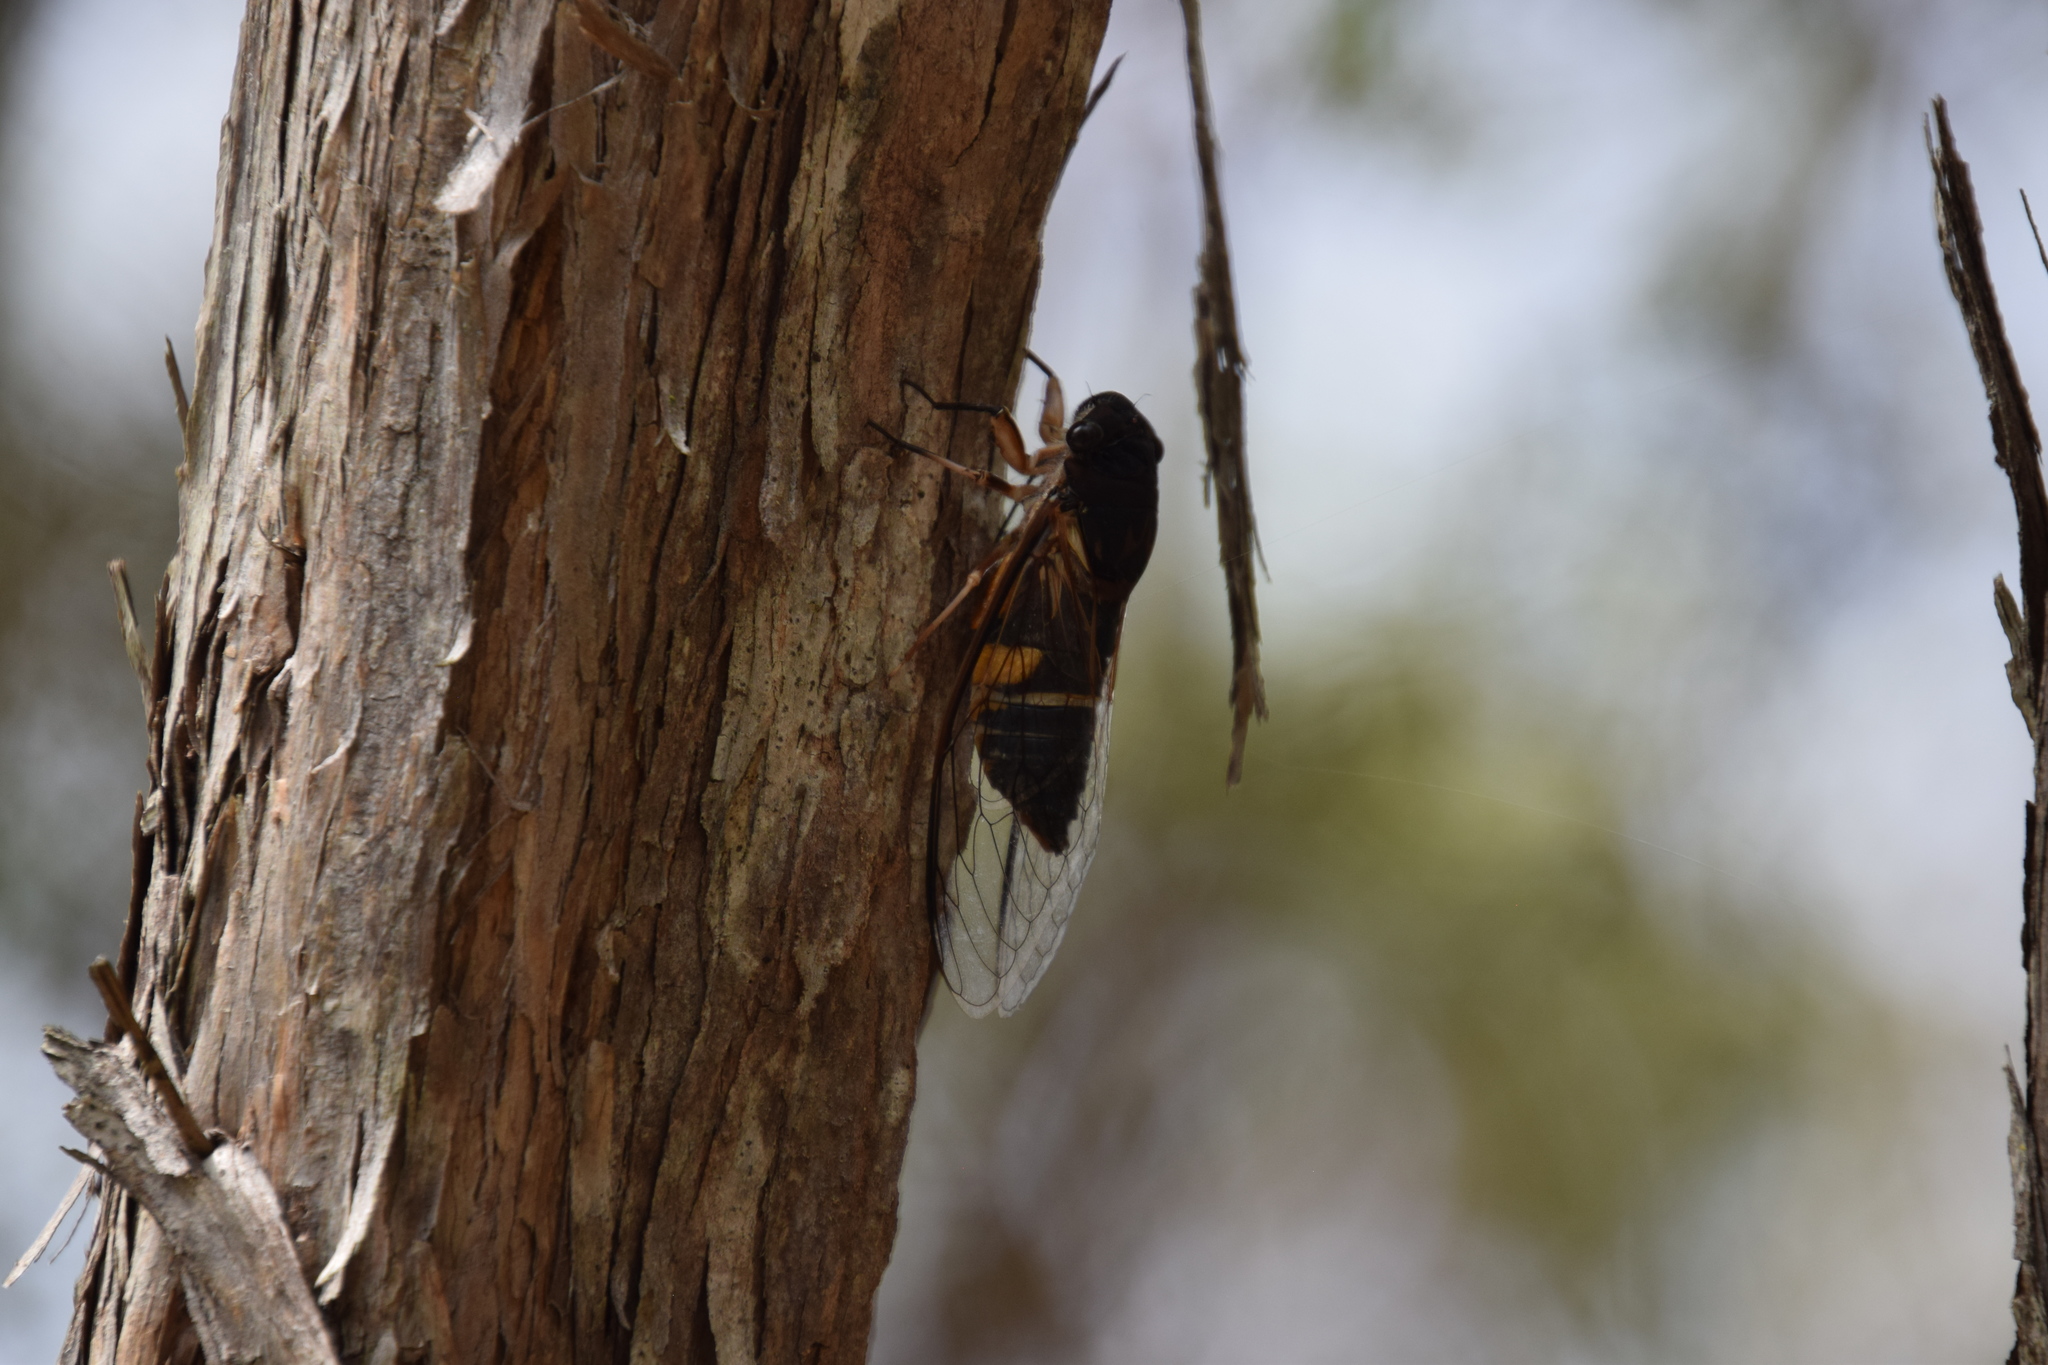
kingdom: Animalia
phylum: Arthropoda
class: Insecta
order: Hemiptera
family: Cicadidae
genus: Psaltoda
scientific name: Psaltoda harrisii
